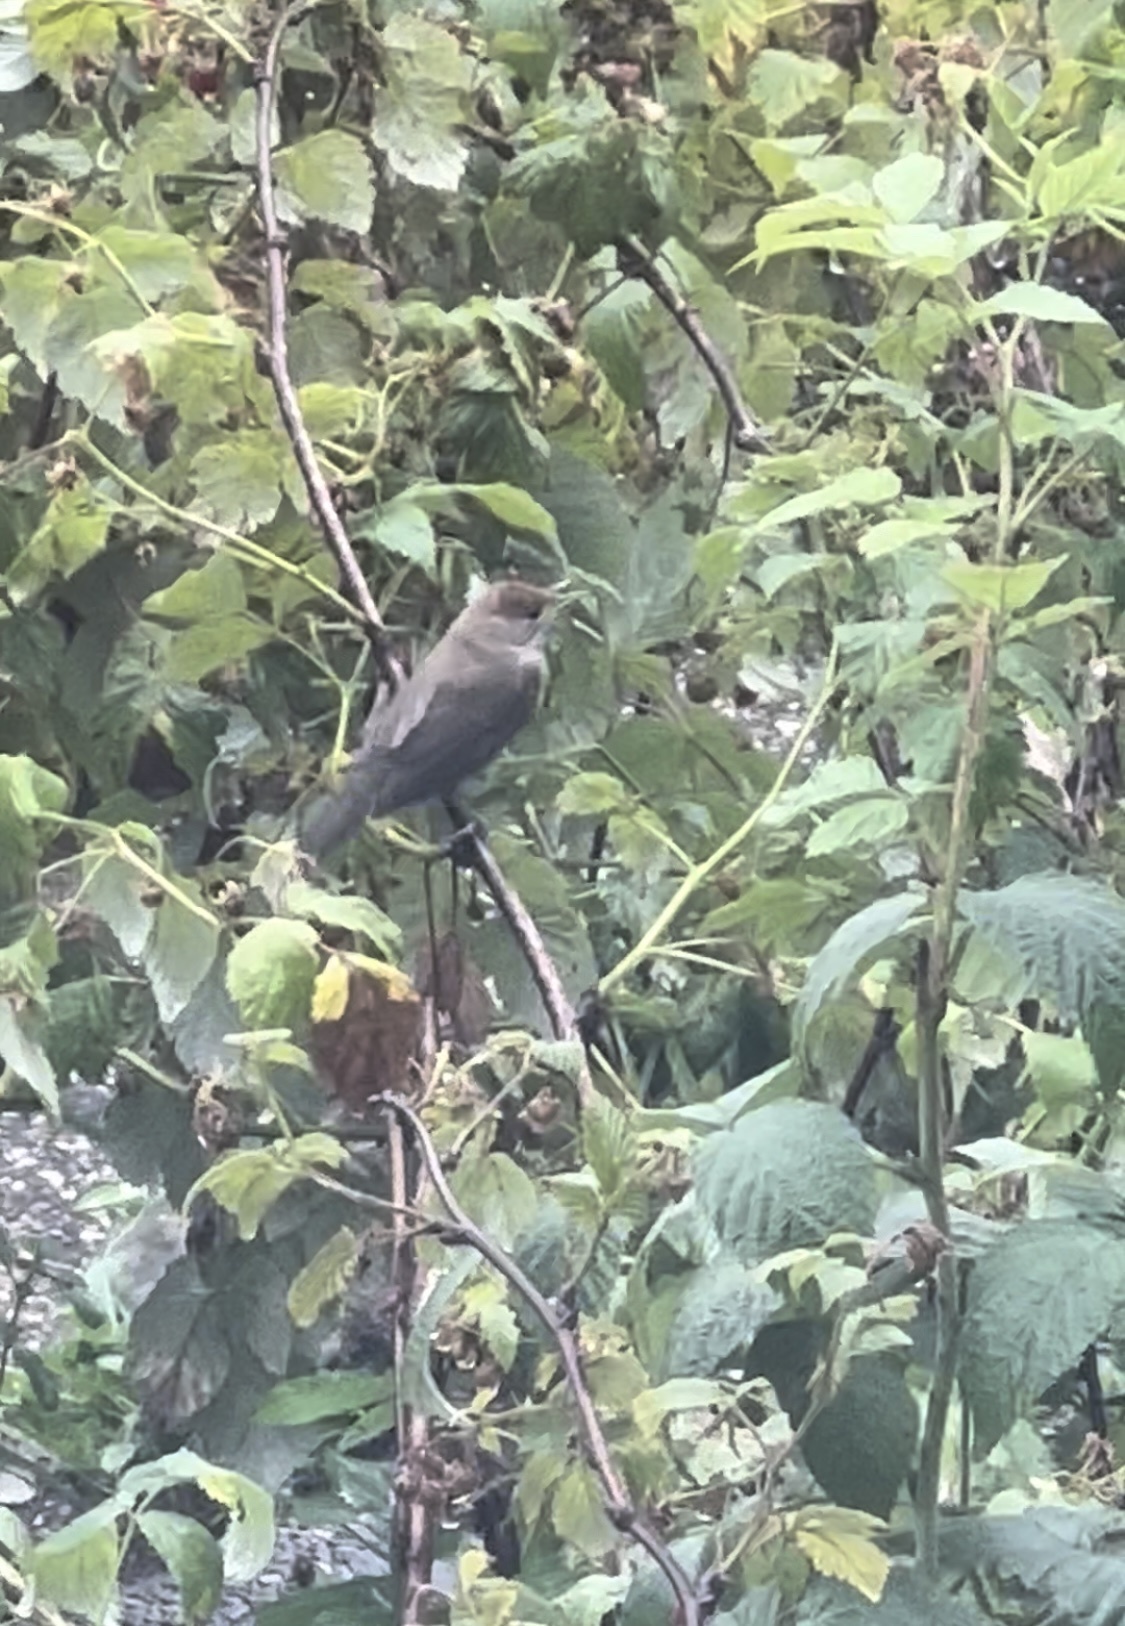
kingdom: Animalia
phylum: Chordata
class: Aves
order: Passeriformes
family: Sylviidae
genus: Sylvia
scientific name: Sylvia atricapilla
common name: Eurasian blackcap
